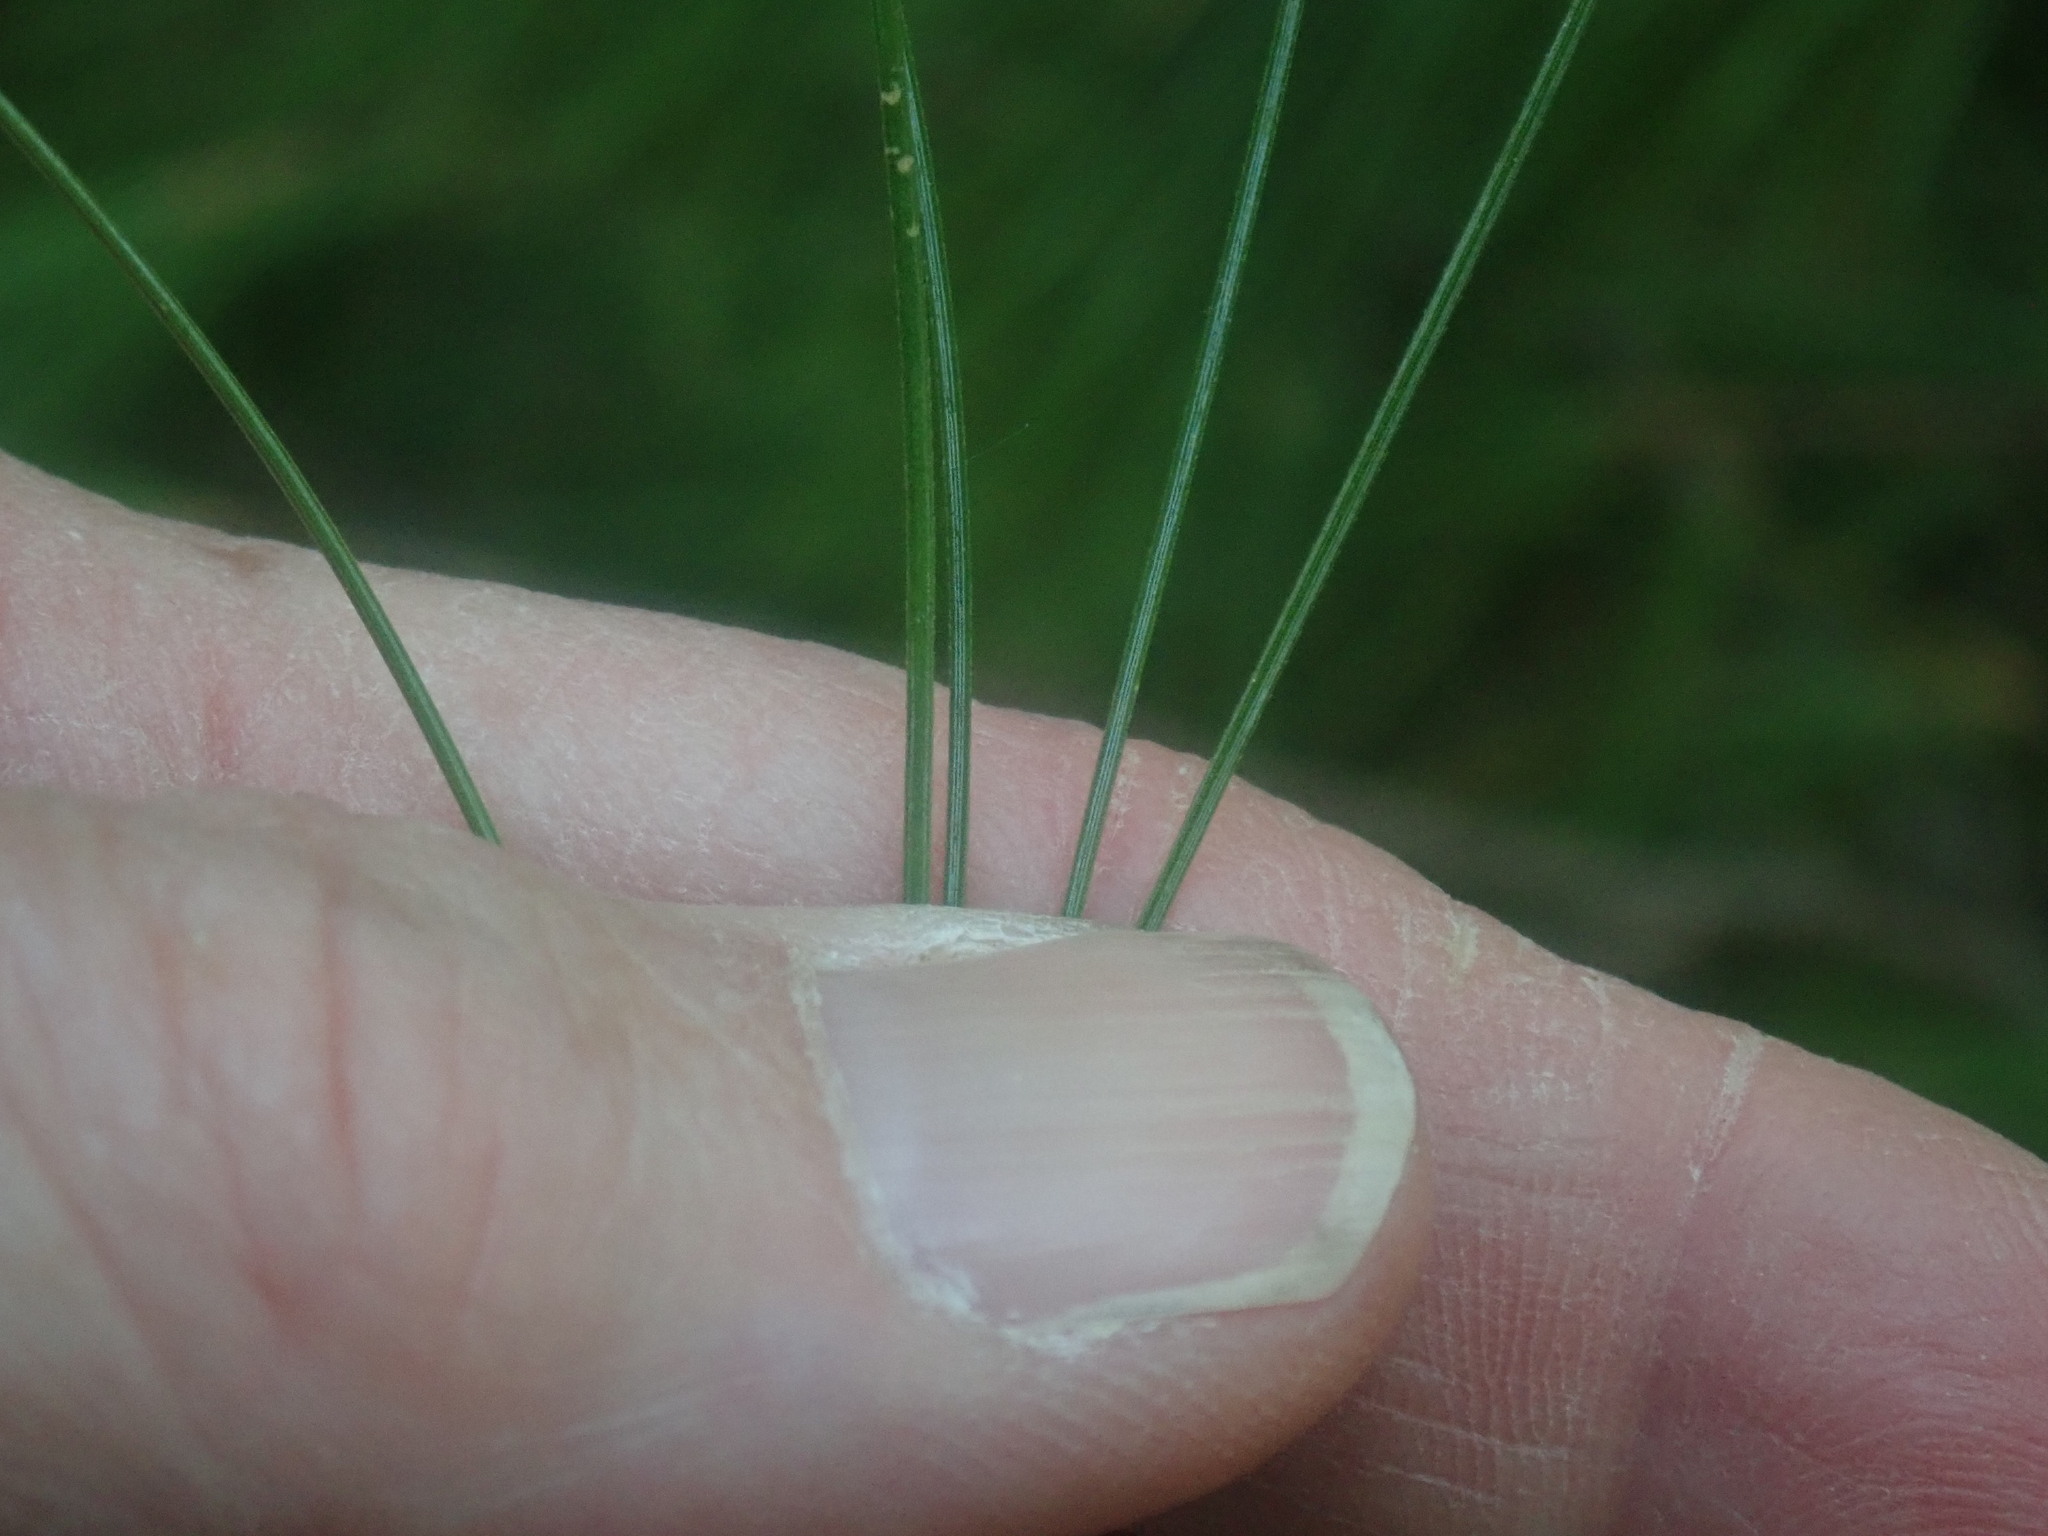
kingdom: Plantae
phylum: Tracheophyta
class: Pinopsida
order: Pinales
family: Pinaceae
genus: Pinus
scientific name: Pinus strobus
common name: Weymouth pine
